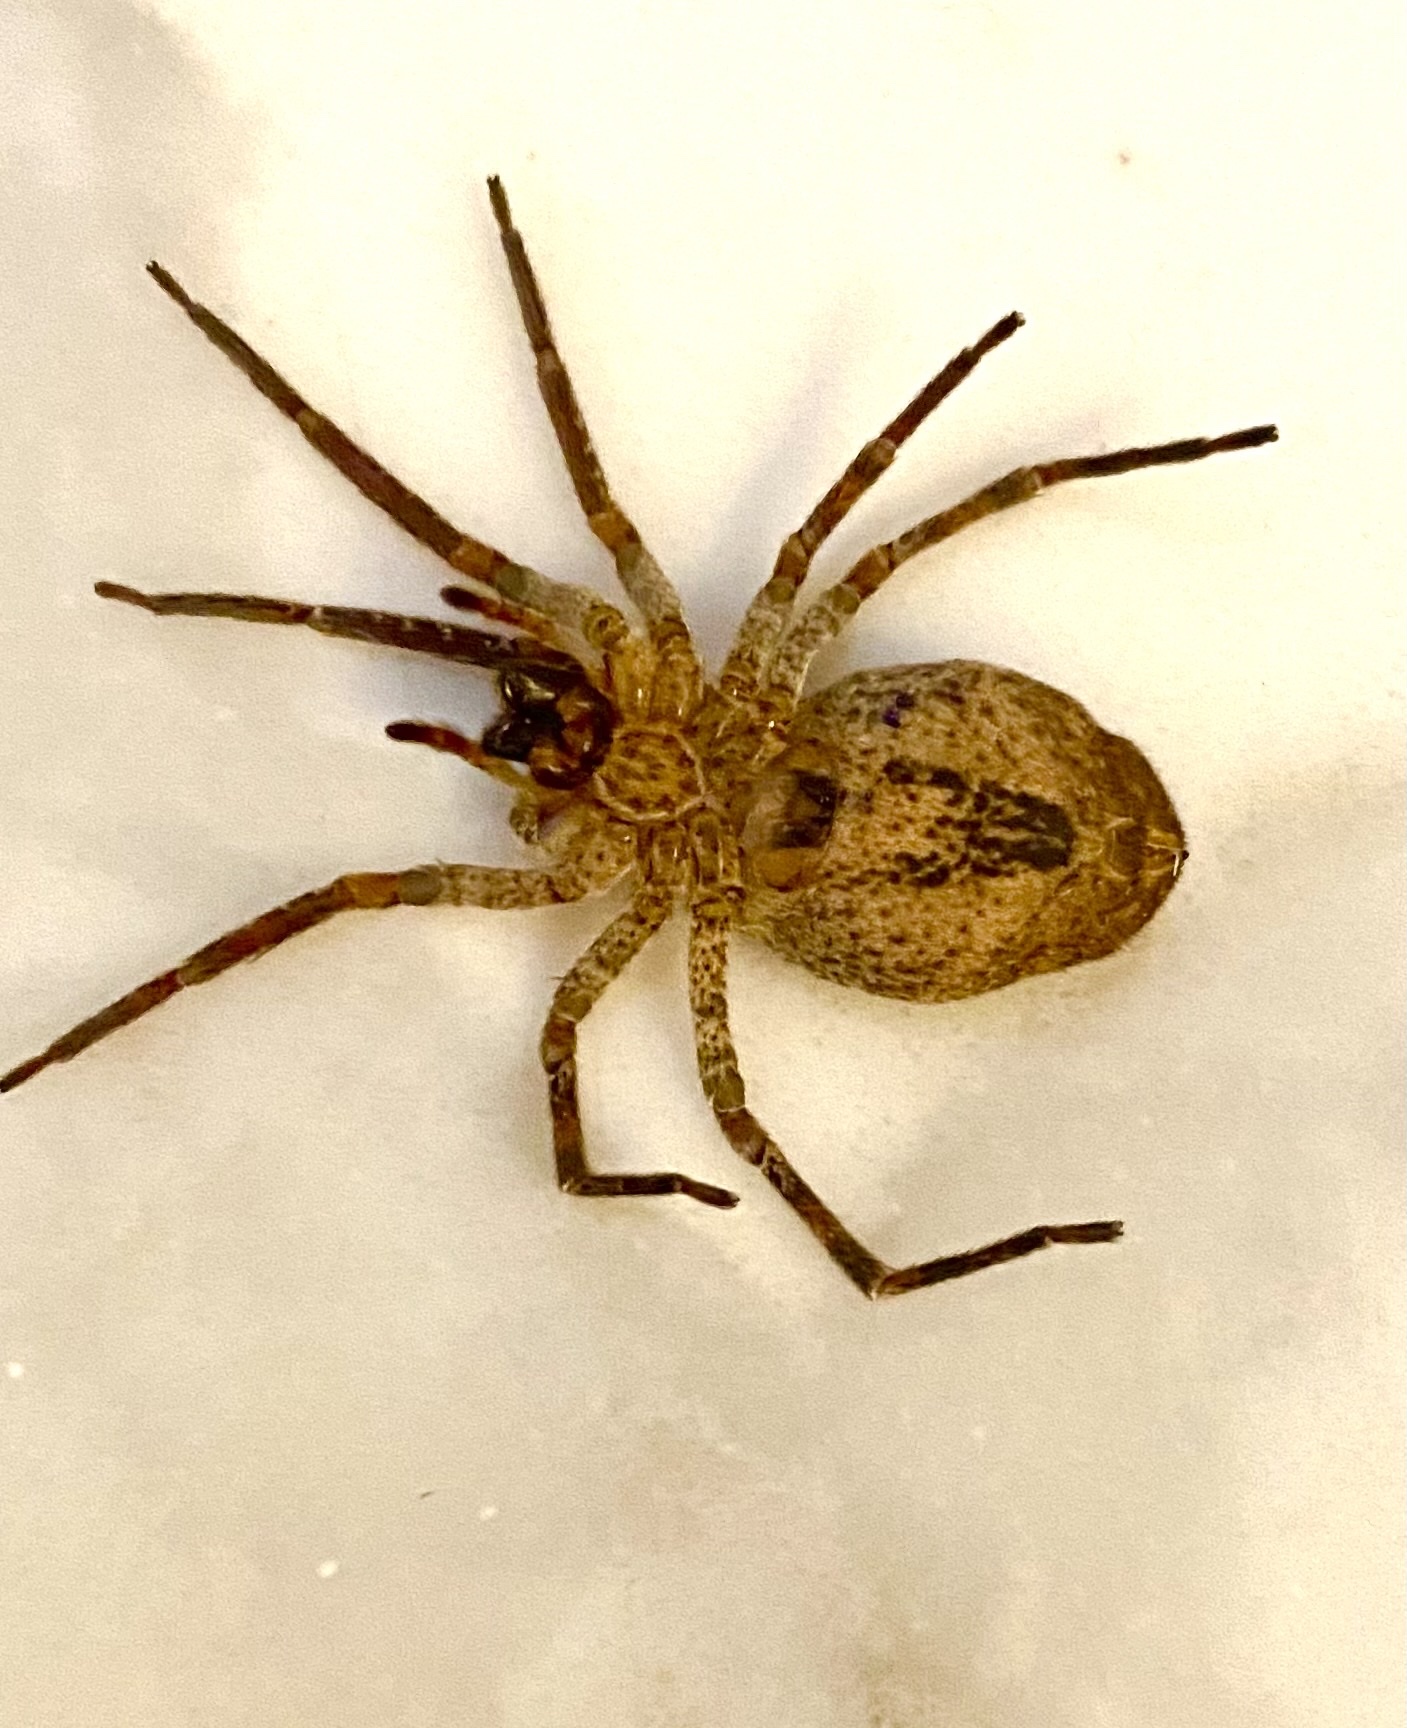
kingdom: Animalia
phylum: Arthropoda
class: Arachnida
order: Araneae
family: Zoropsidae
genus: Zoropsis
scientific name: Zoropsis spinimana
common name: Zoropsid spider
